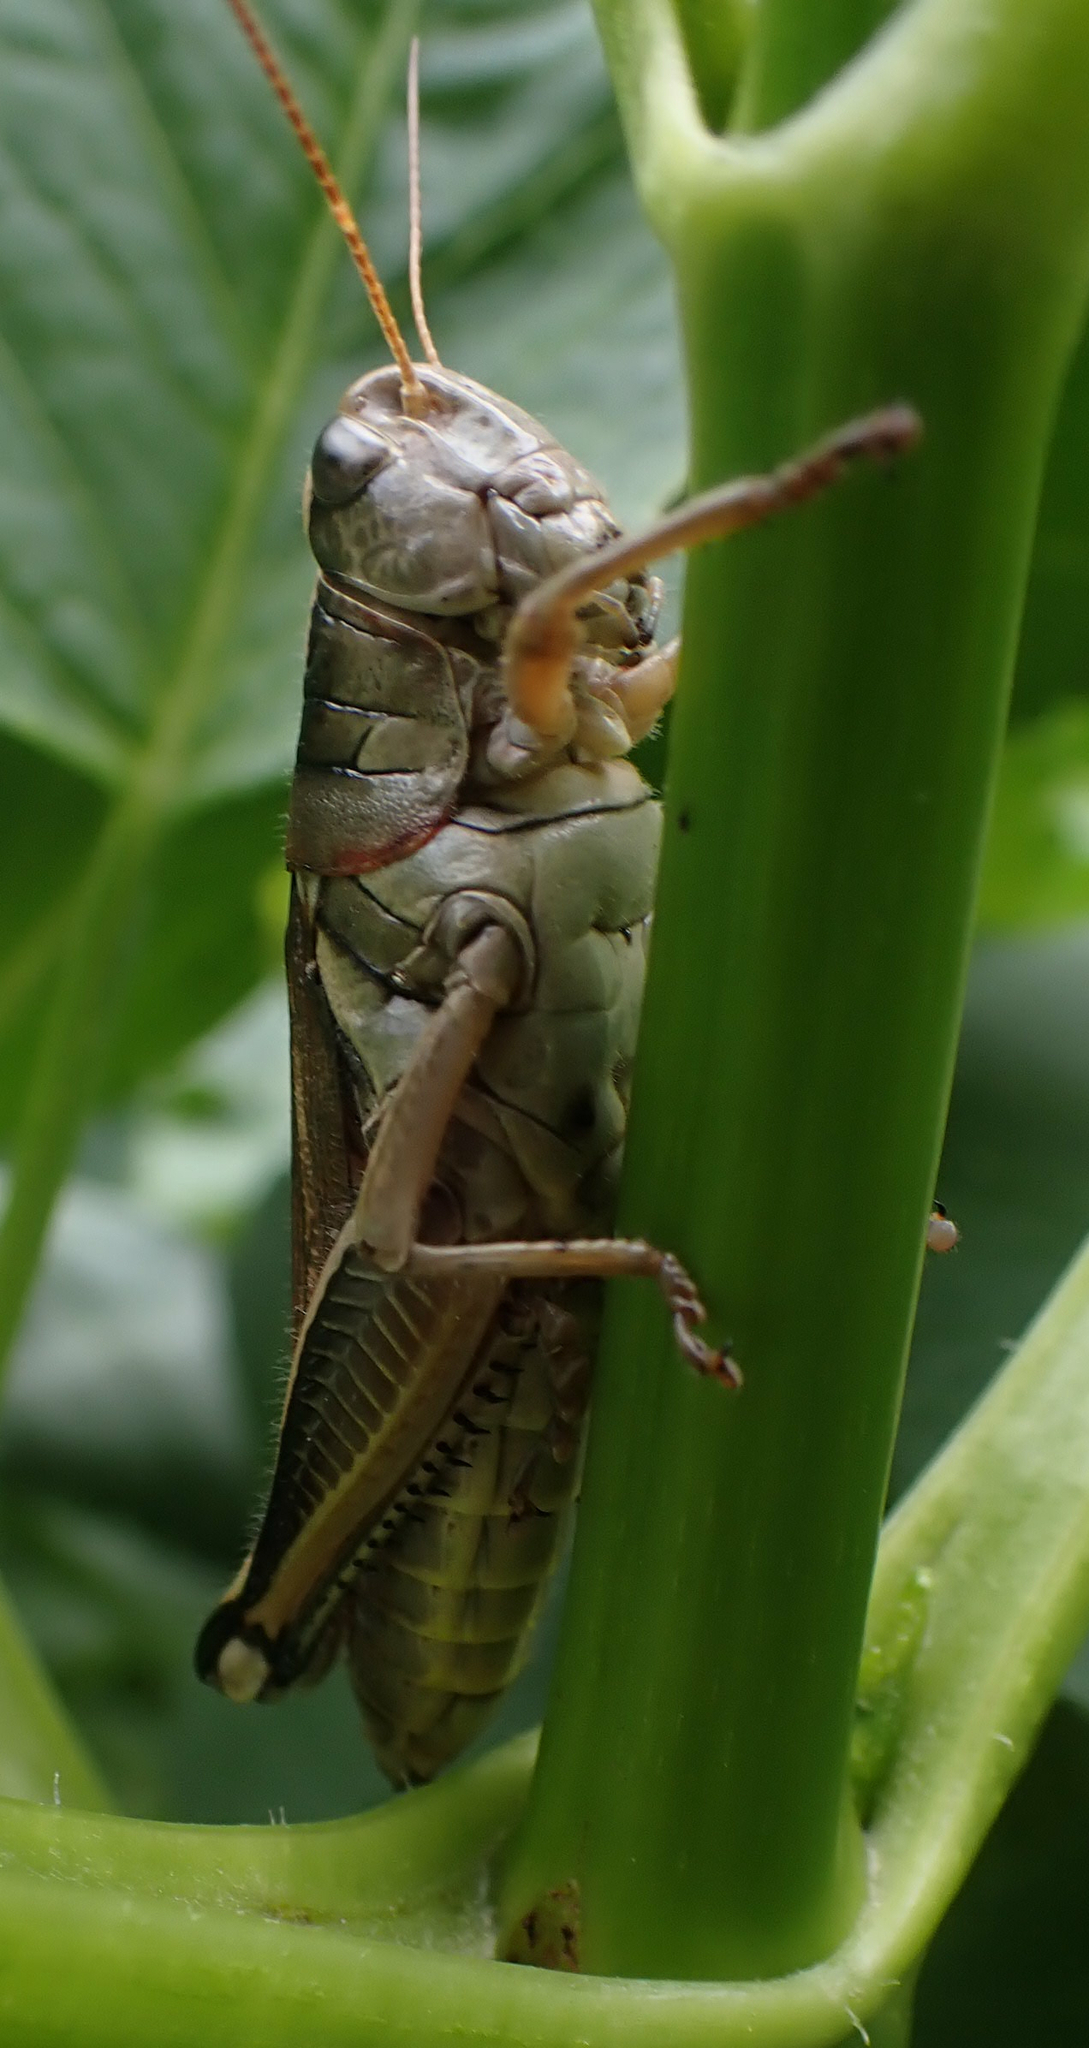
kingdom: Animalia
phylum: Arthropoda
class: Insecta
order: Orthoptera
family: Acrididae
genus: Melanoplus
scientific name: Melanoplus bivittatus
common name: Two-striped grasshopper
